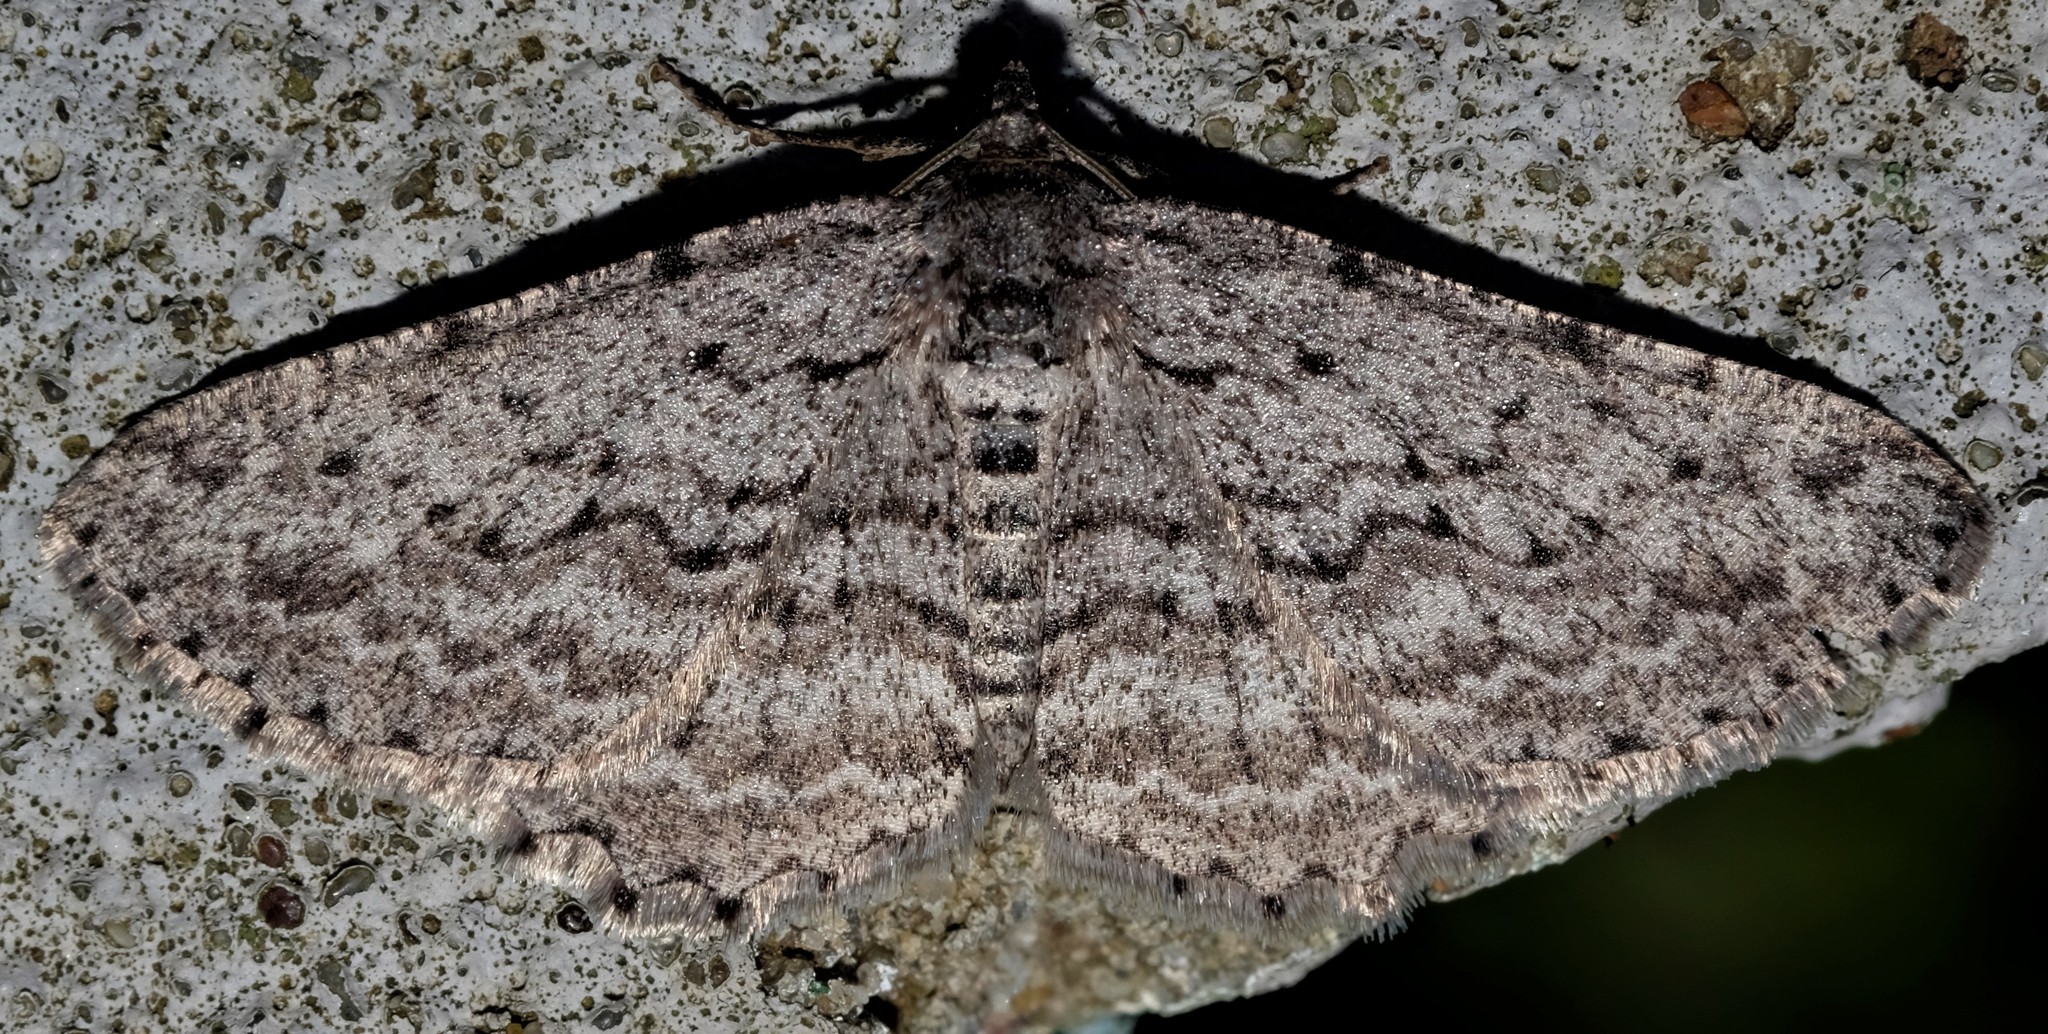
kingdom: Animalia
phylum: Arthropoda
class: Insecta
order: Lepidoptera
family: Geometridae
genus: Psilosticha
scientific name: Psilosticha absorpta
